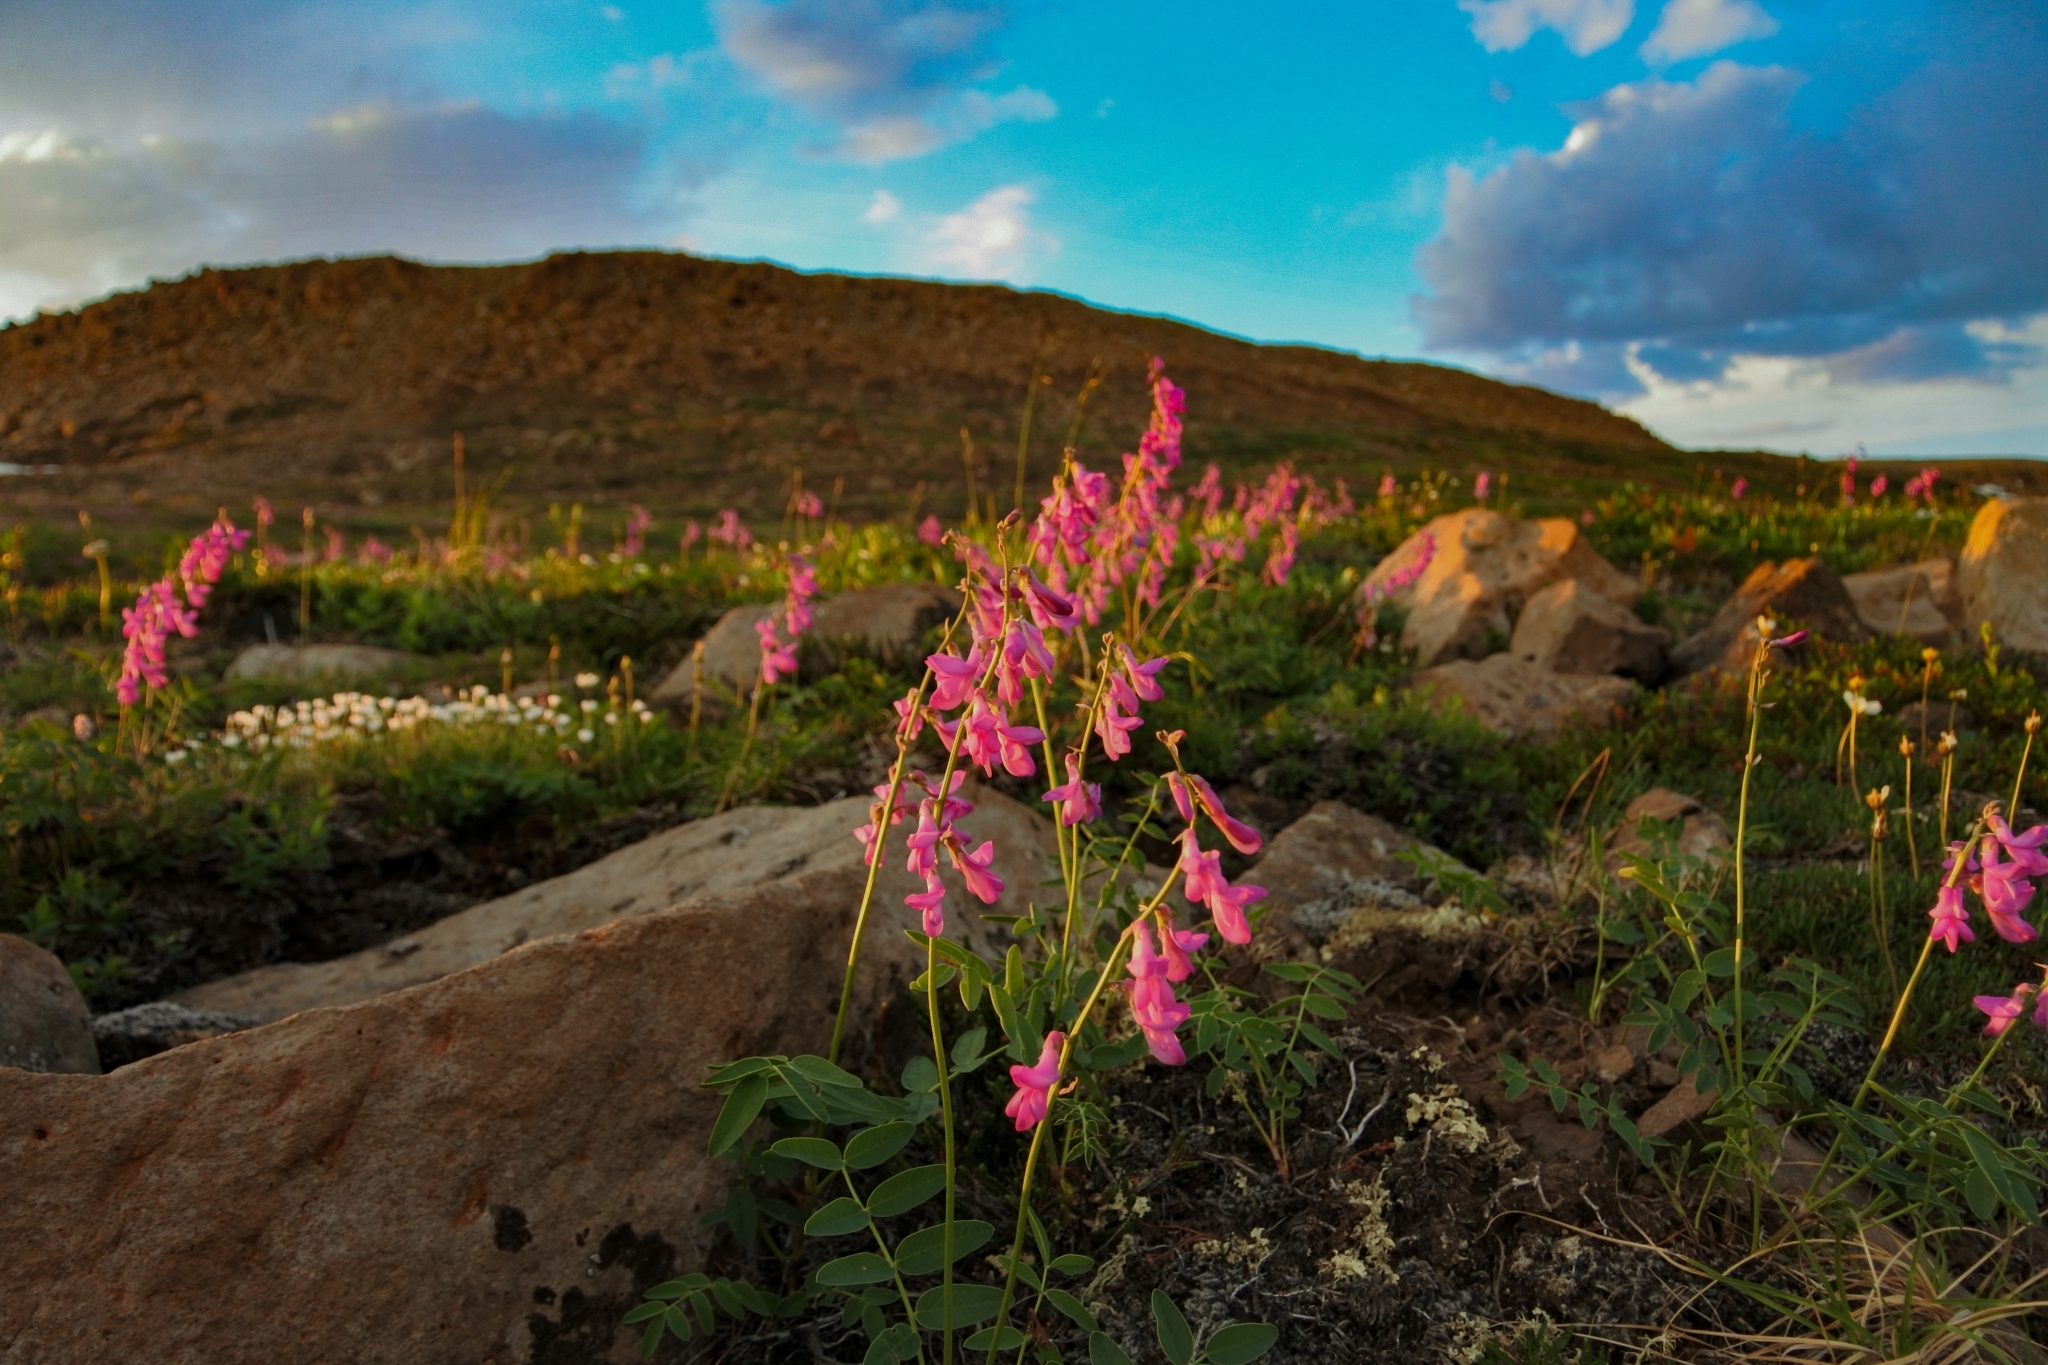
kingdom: Plantae
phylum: Tracheophyta
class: Magnoliopsida
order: Fabales
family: Fabaceae
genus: Hedysarum
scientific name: Hedysarum hedysaroides
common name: Alpine french-honeysuckle
